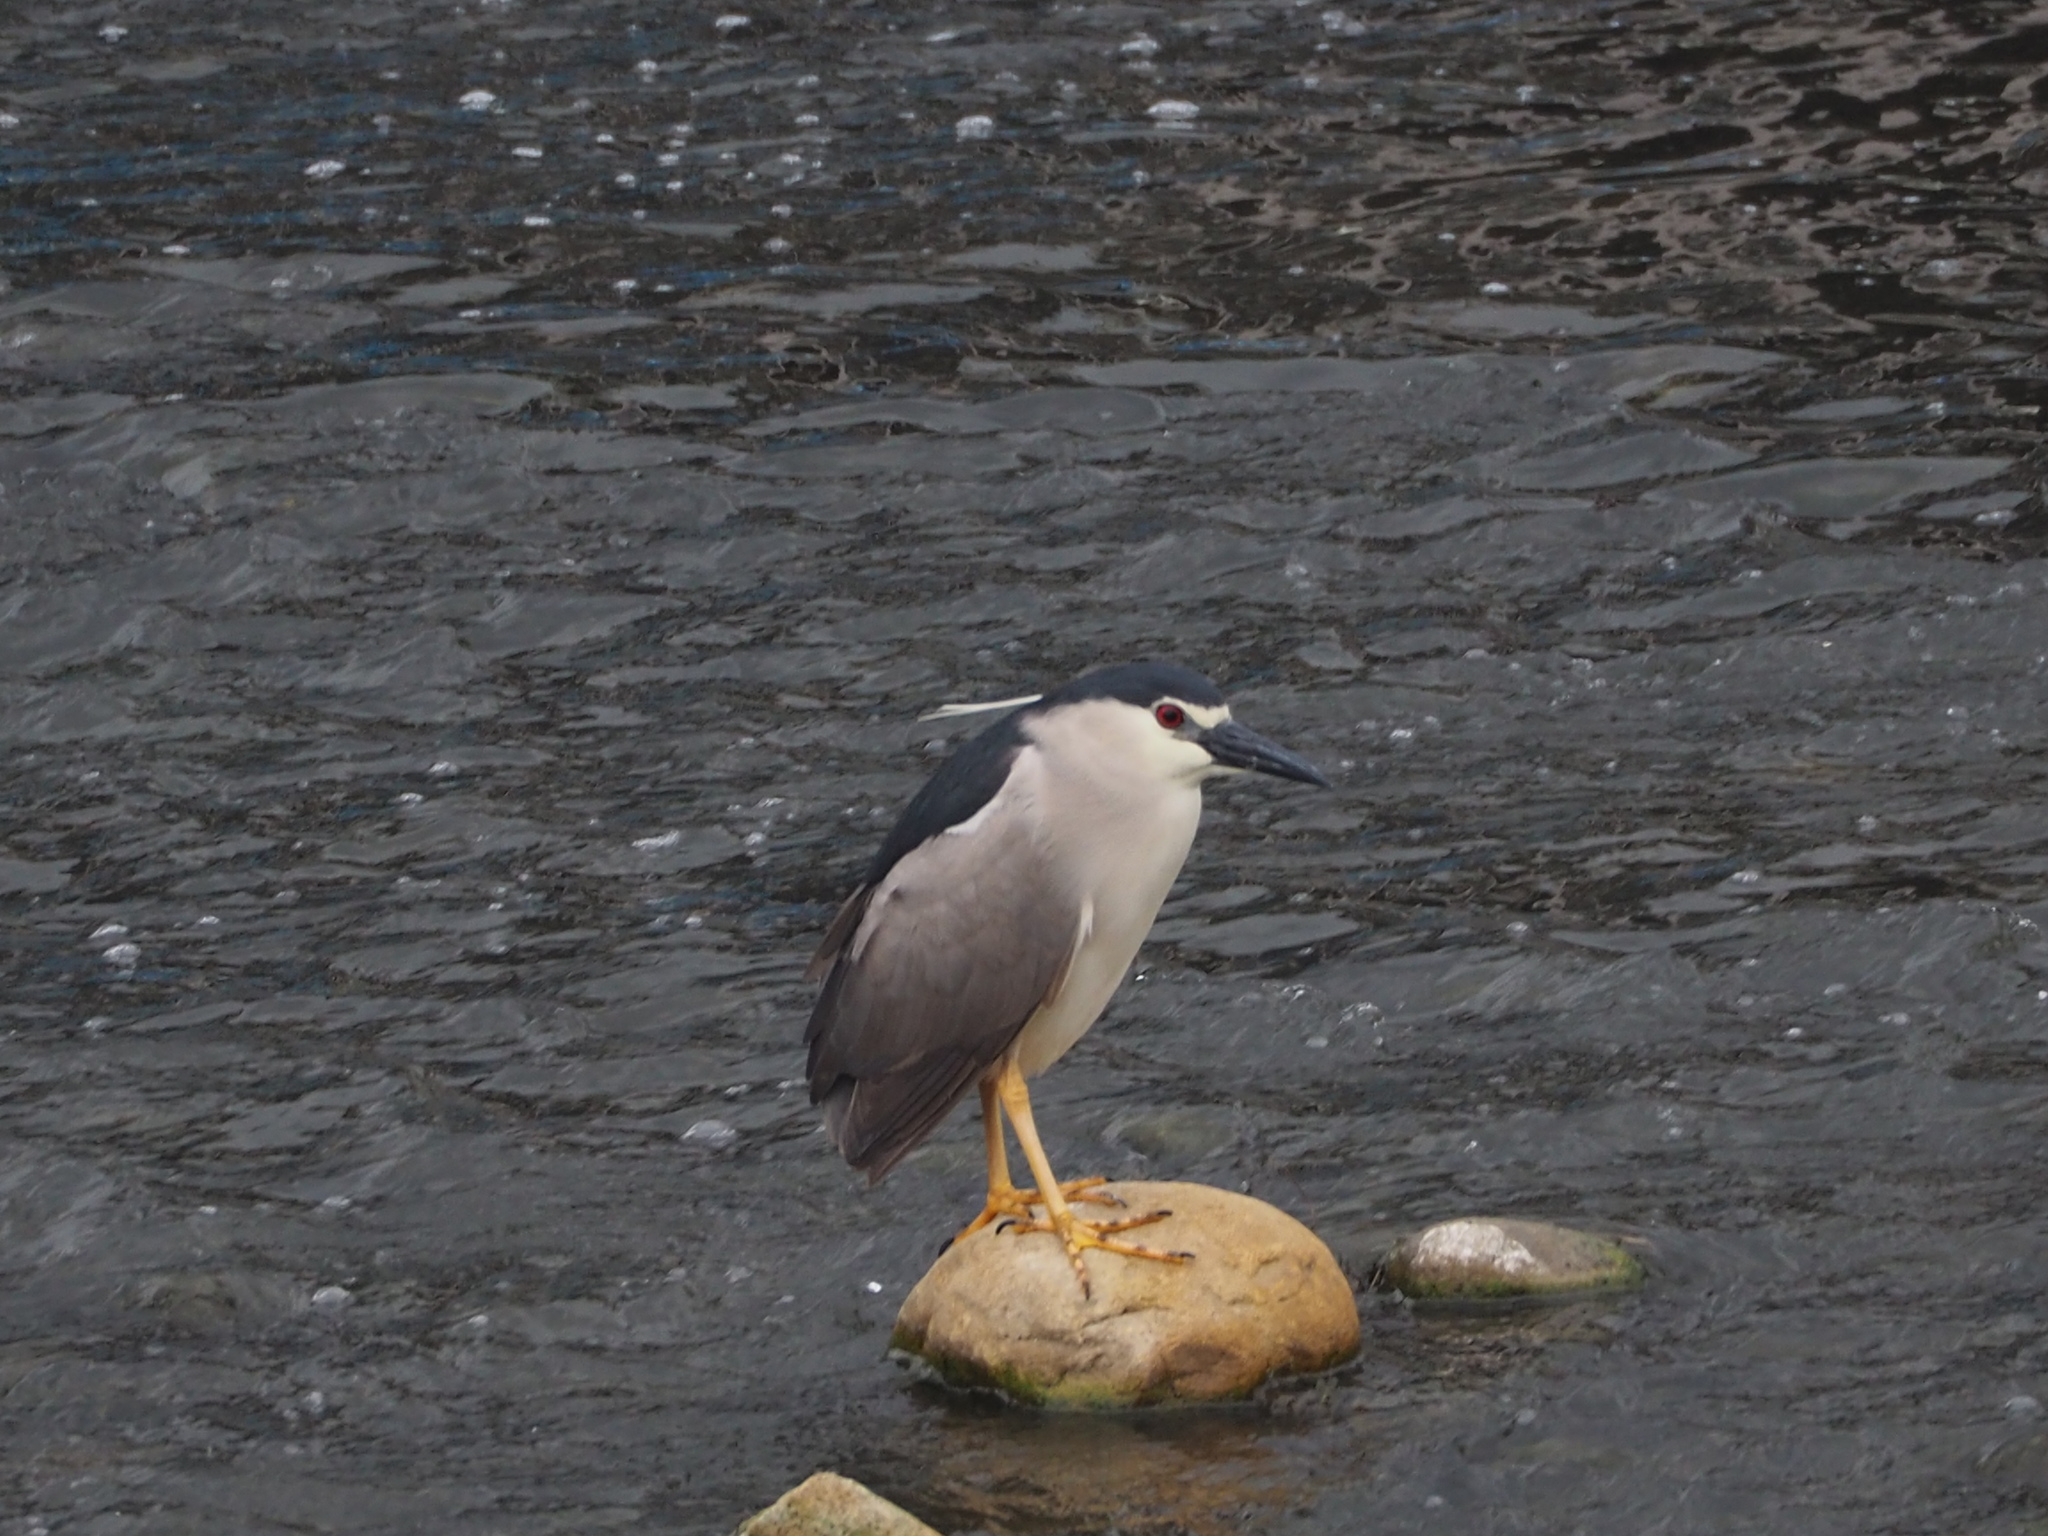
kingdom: Animalia
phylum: Chordata
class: Aves
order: Pelecaniformes
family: Ardeidae
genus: Nycticorax
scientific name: Nycticorax nycticorax
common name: Black-crowned night heron
